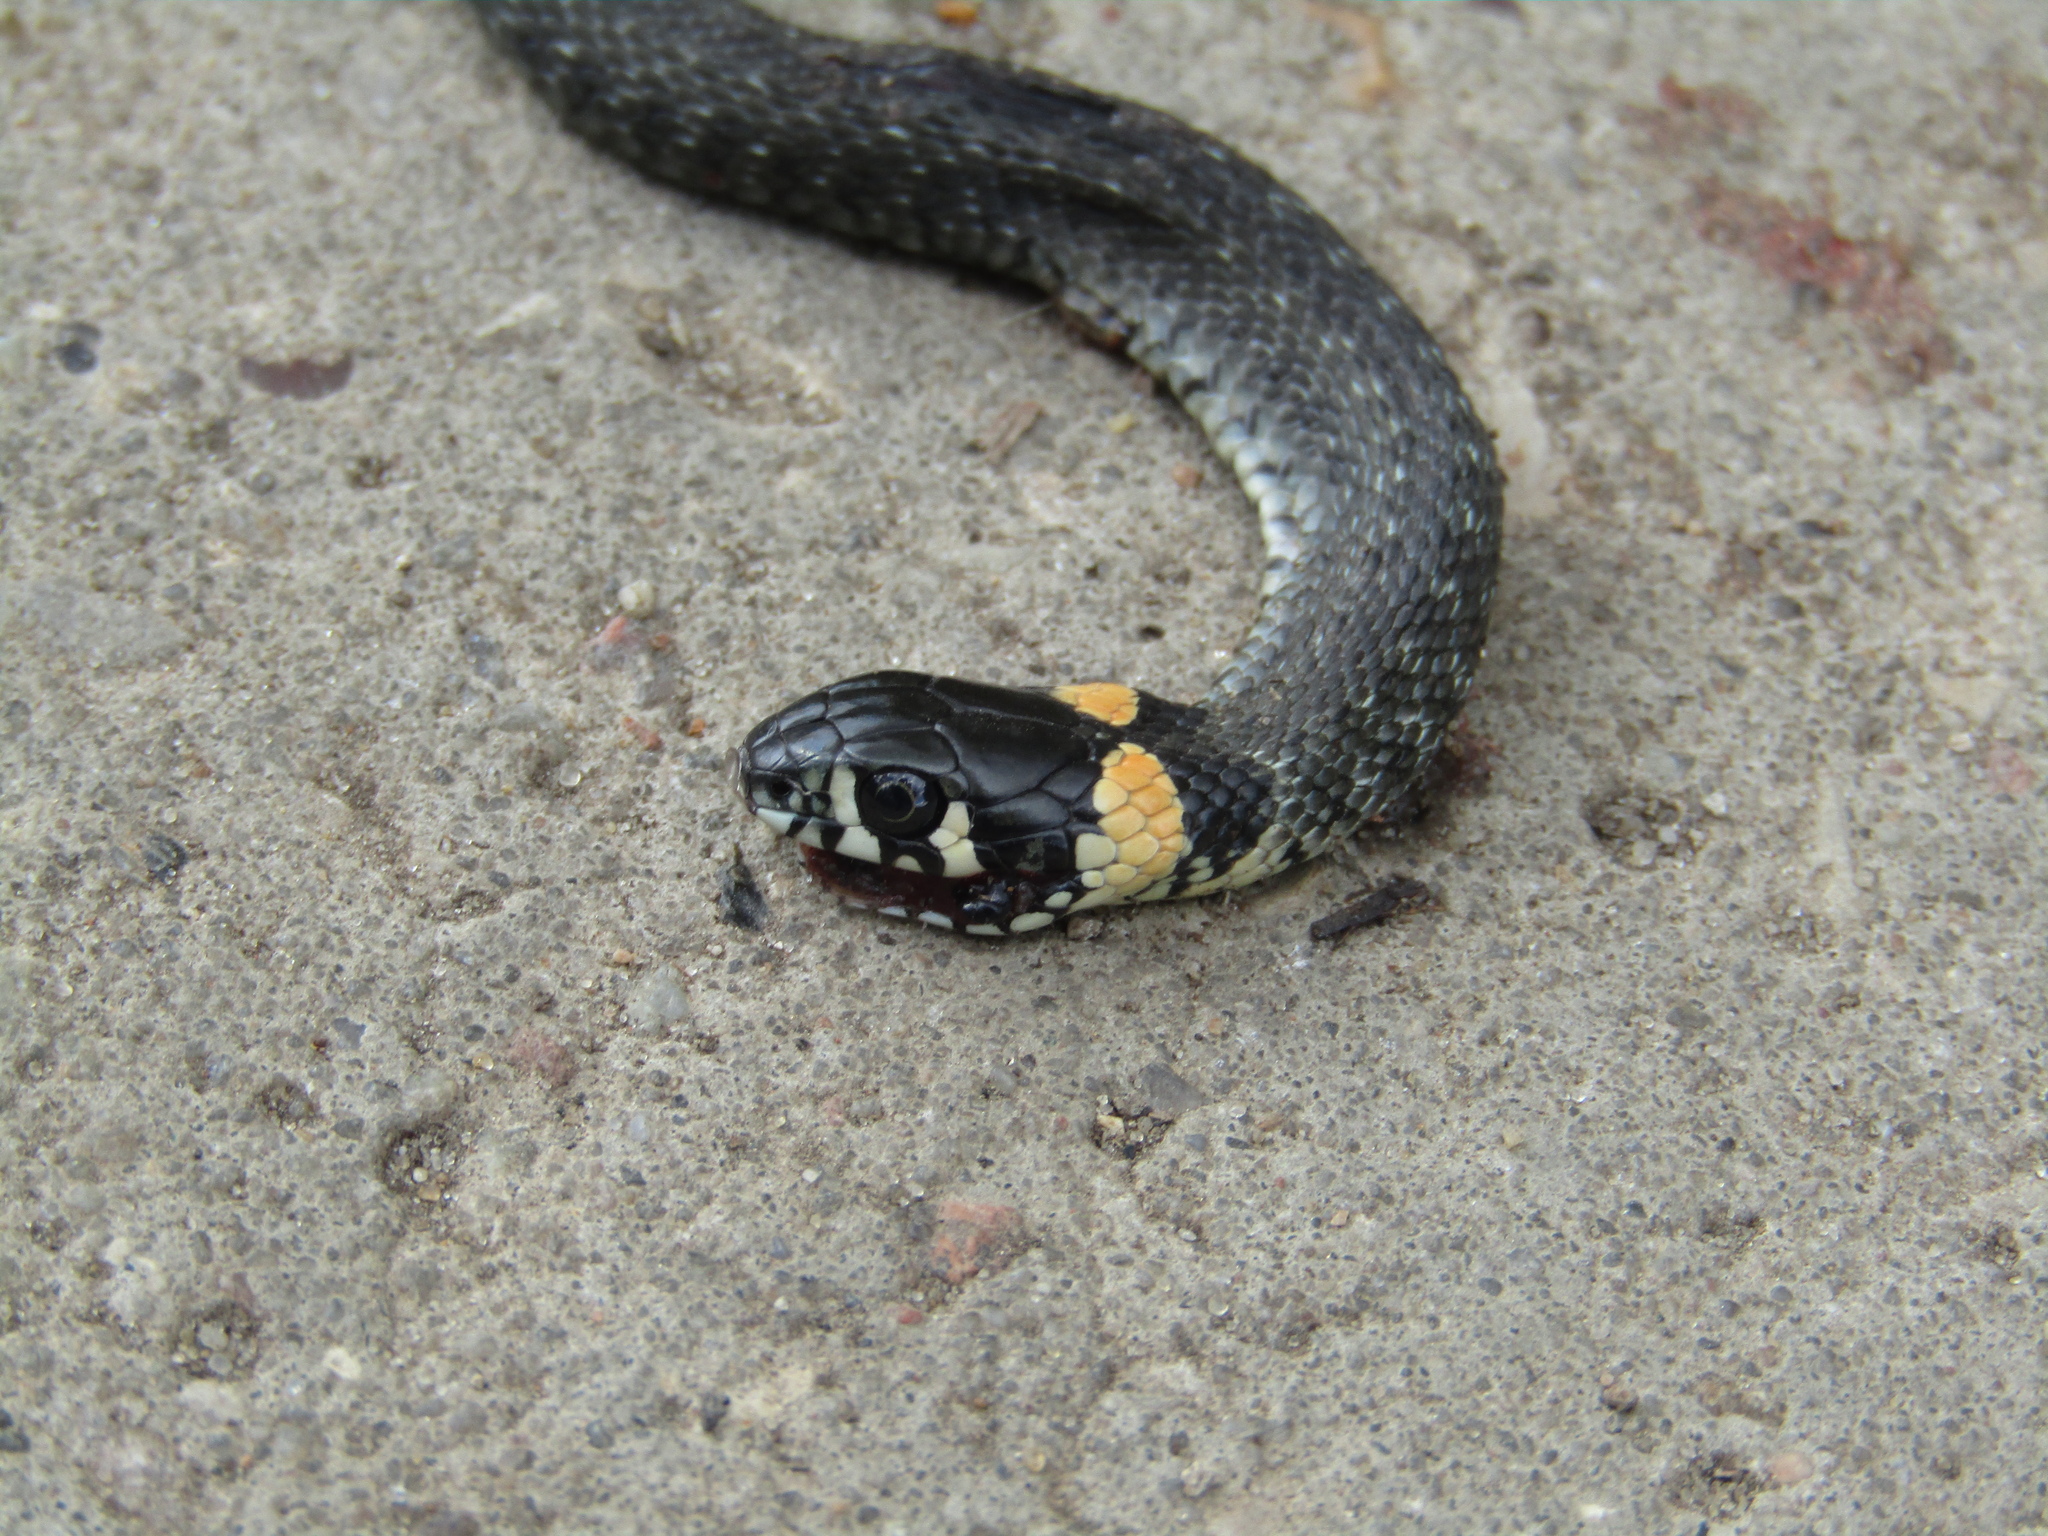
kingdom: Animalia
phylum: Chordata
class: Squamata
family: Colubridae
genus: Natrix
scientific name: Natrix natrix
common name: Grass snake
